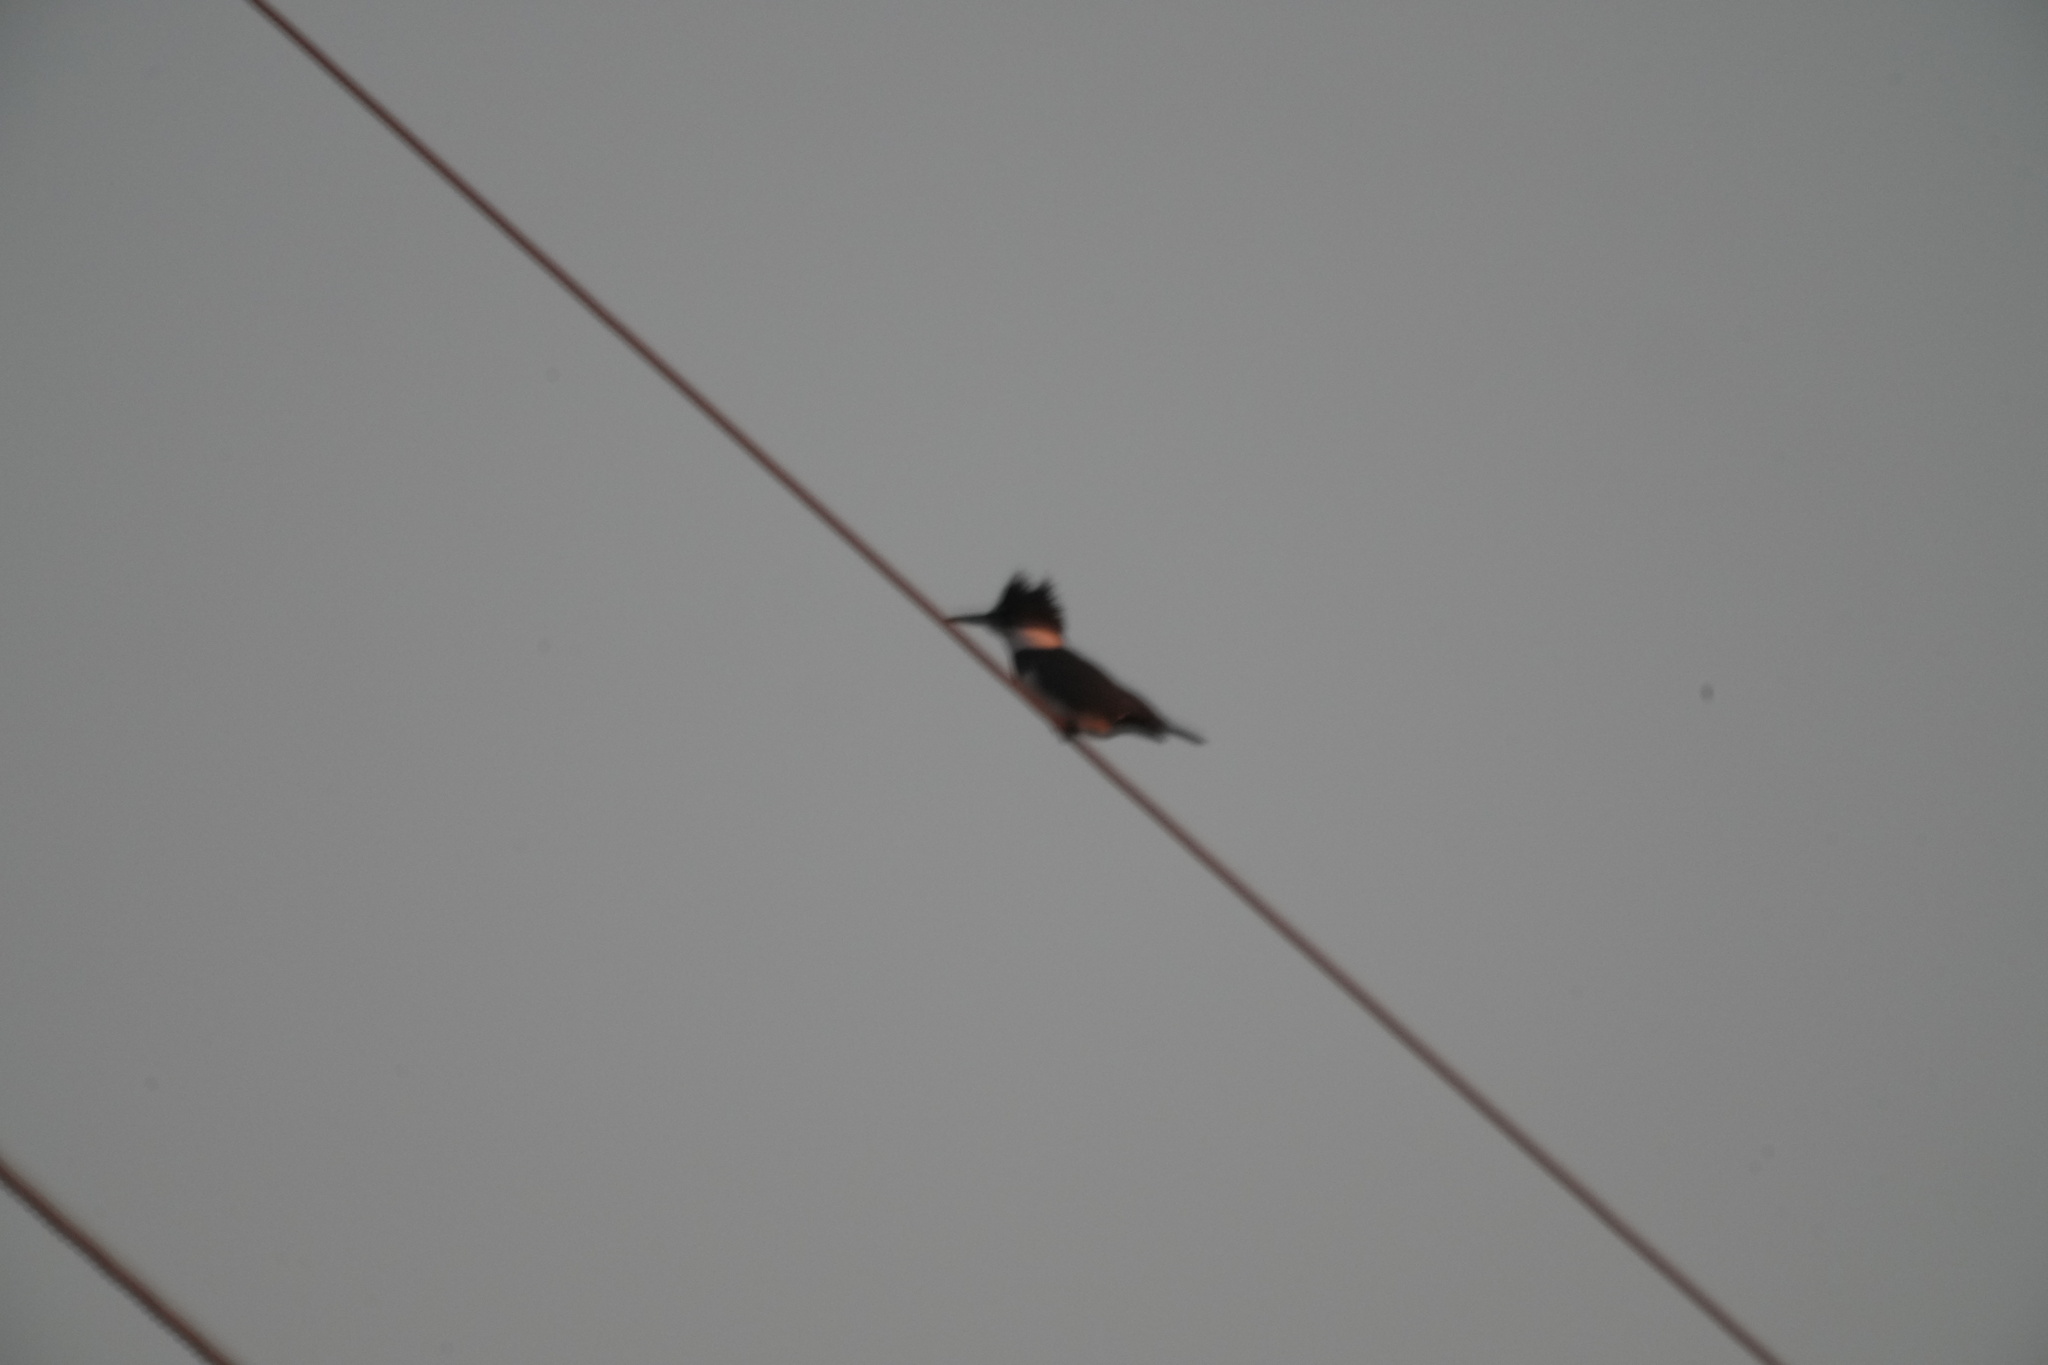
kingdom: Animalia
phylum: Chordata
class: Aves
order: Coraciiformes
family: Alcedinidae
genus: Megaceryle
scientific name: Megaceryle alcyon
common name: Belted kingfisher
